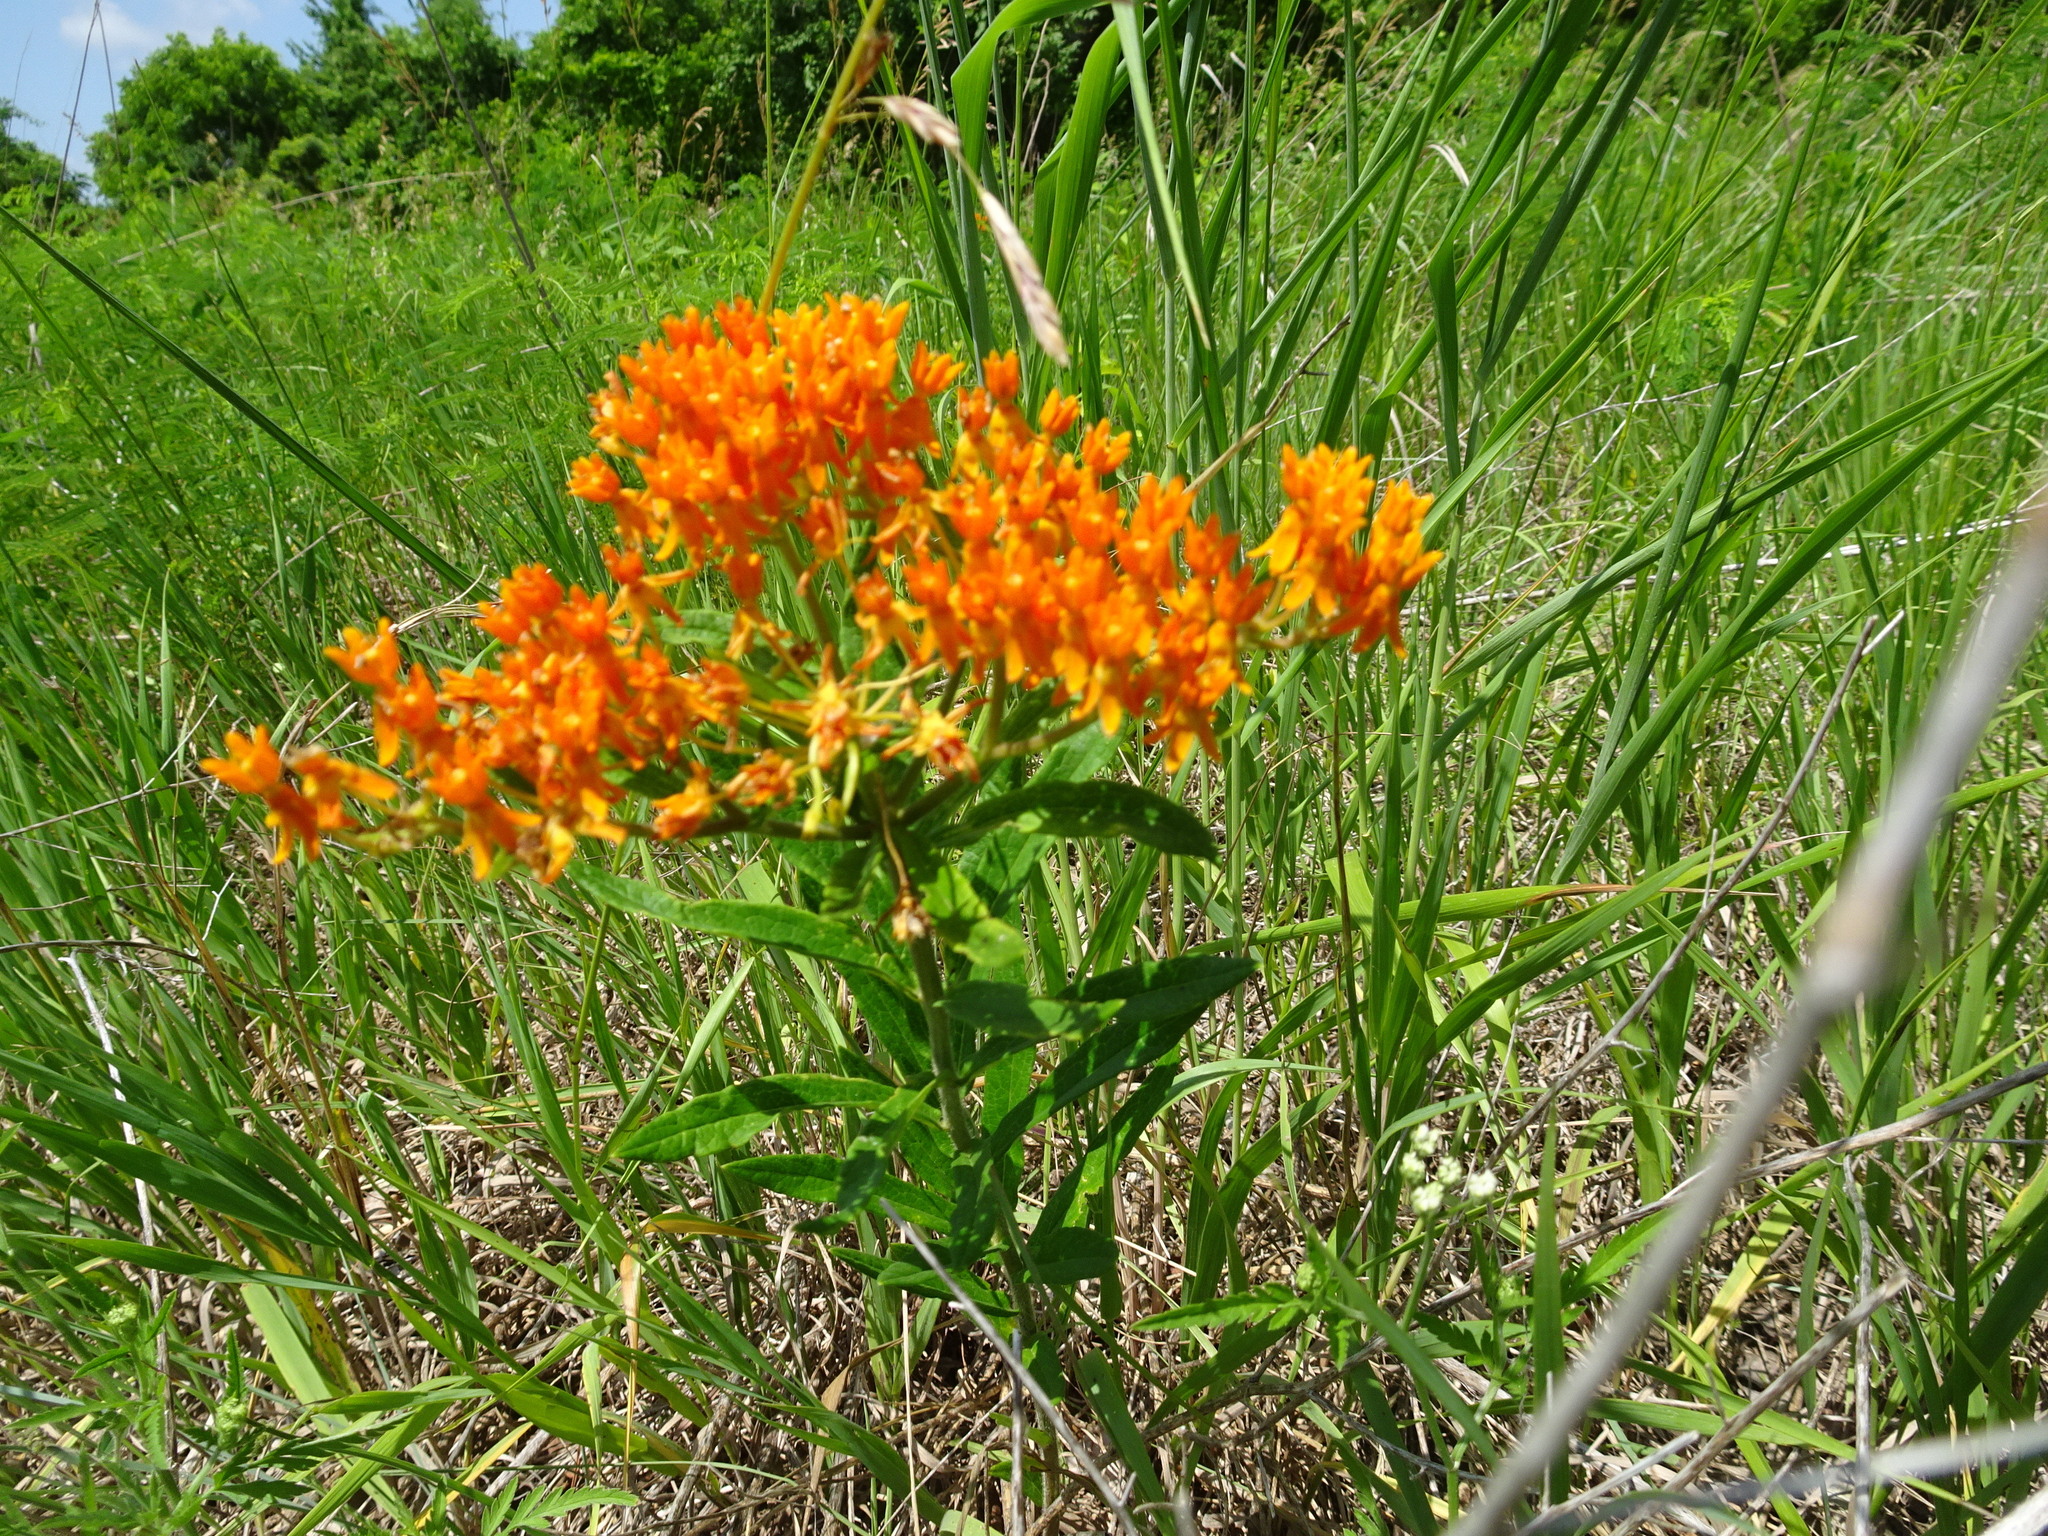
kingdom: Plantae
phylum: Tracheophyta
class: Magnoliopsida
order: Gentianales
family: Apocynaceae
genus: Asclepias
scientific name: Asclepias tuberosa
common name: Butterfly milkweed
